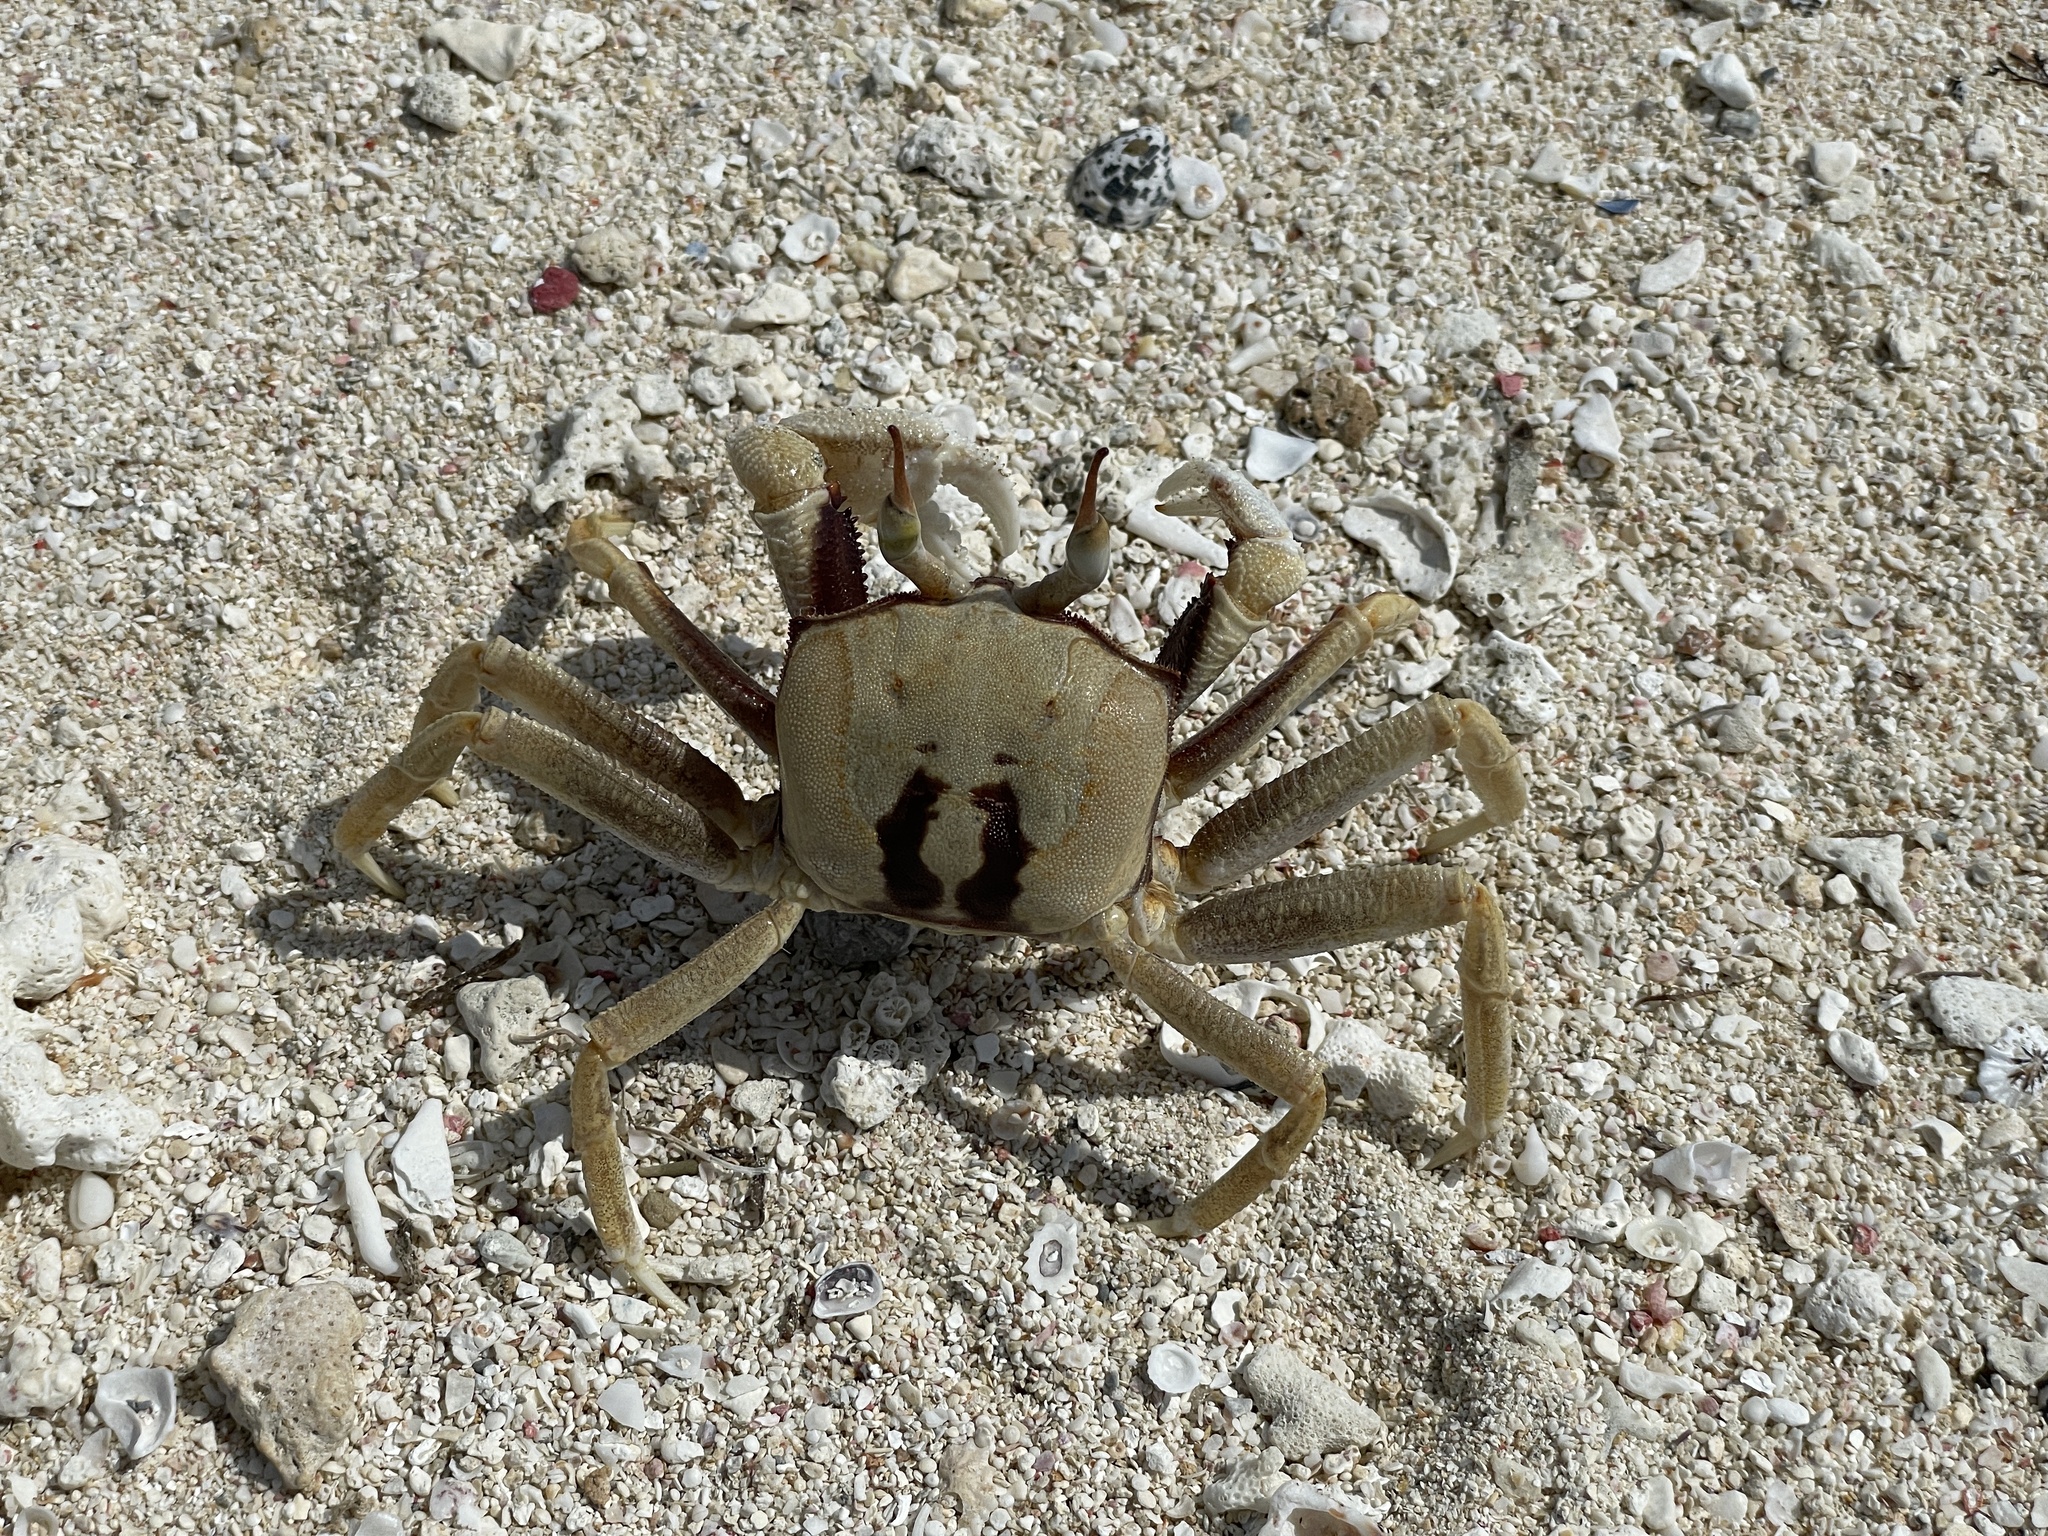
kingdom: Animalia
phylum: Arthropoda
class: Malacostraca
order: Decapoda
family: Ocypodidae
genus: Ocypode
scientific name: Ocypode ceratophthalmus
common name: Indo-pacific ghost crab
